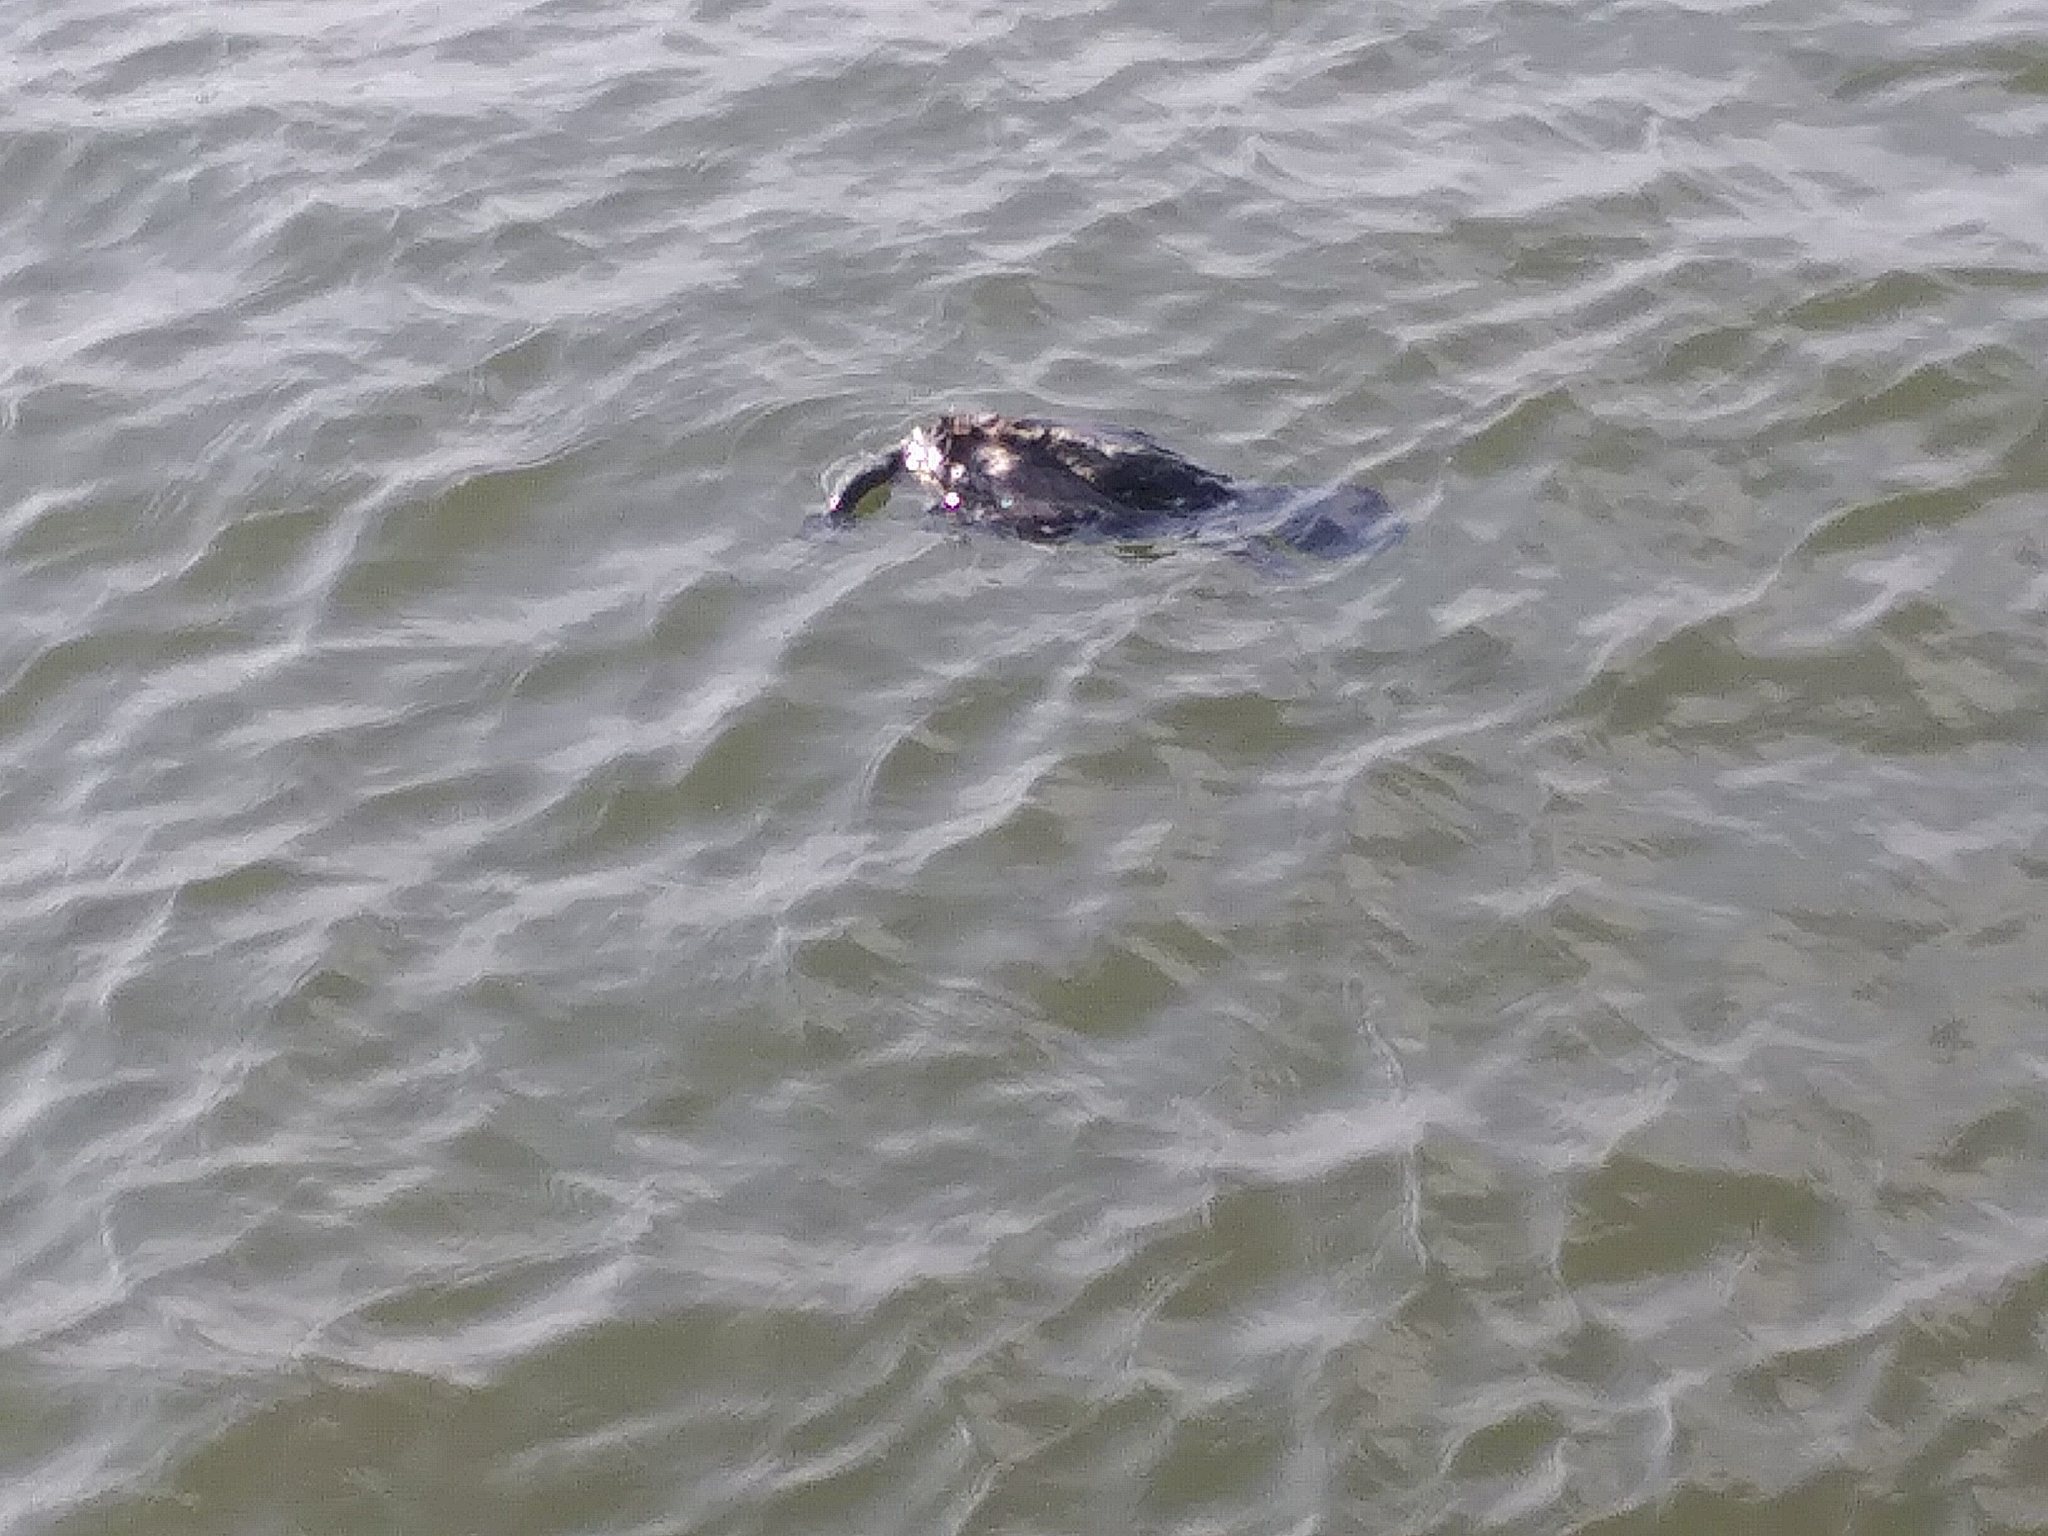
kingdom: Animalia
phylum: Chordata
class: Aves
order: Suliformes
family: Phalacrocoracidae
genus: Phalacrocorax
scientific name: Phalacrocorax auritus
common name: Double-crested cormorant
